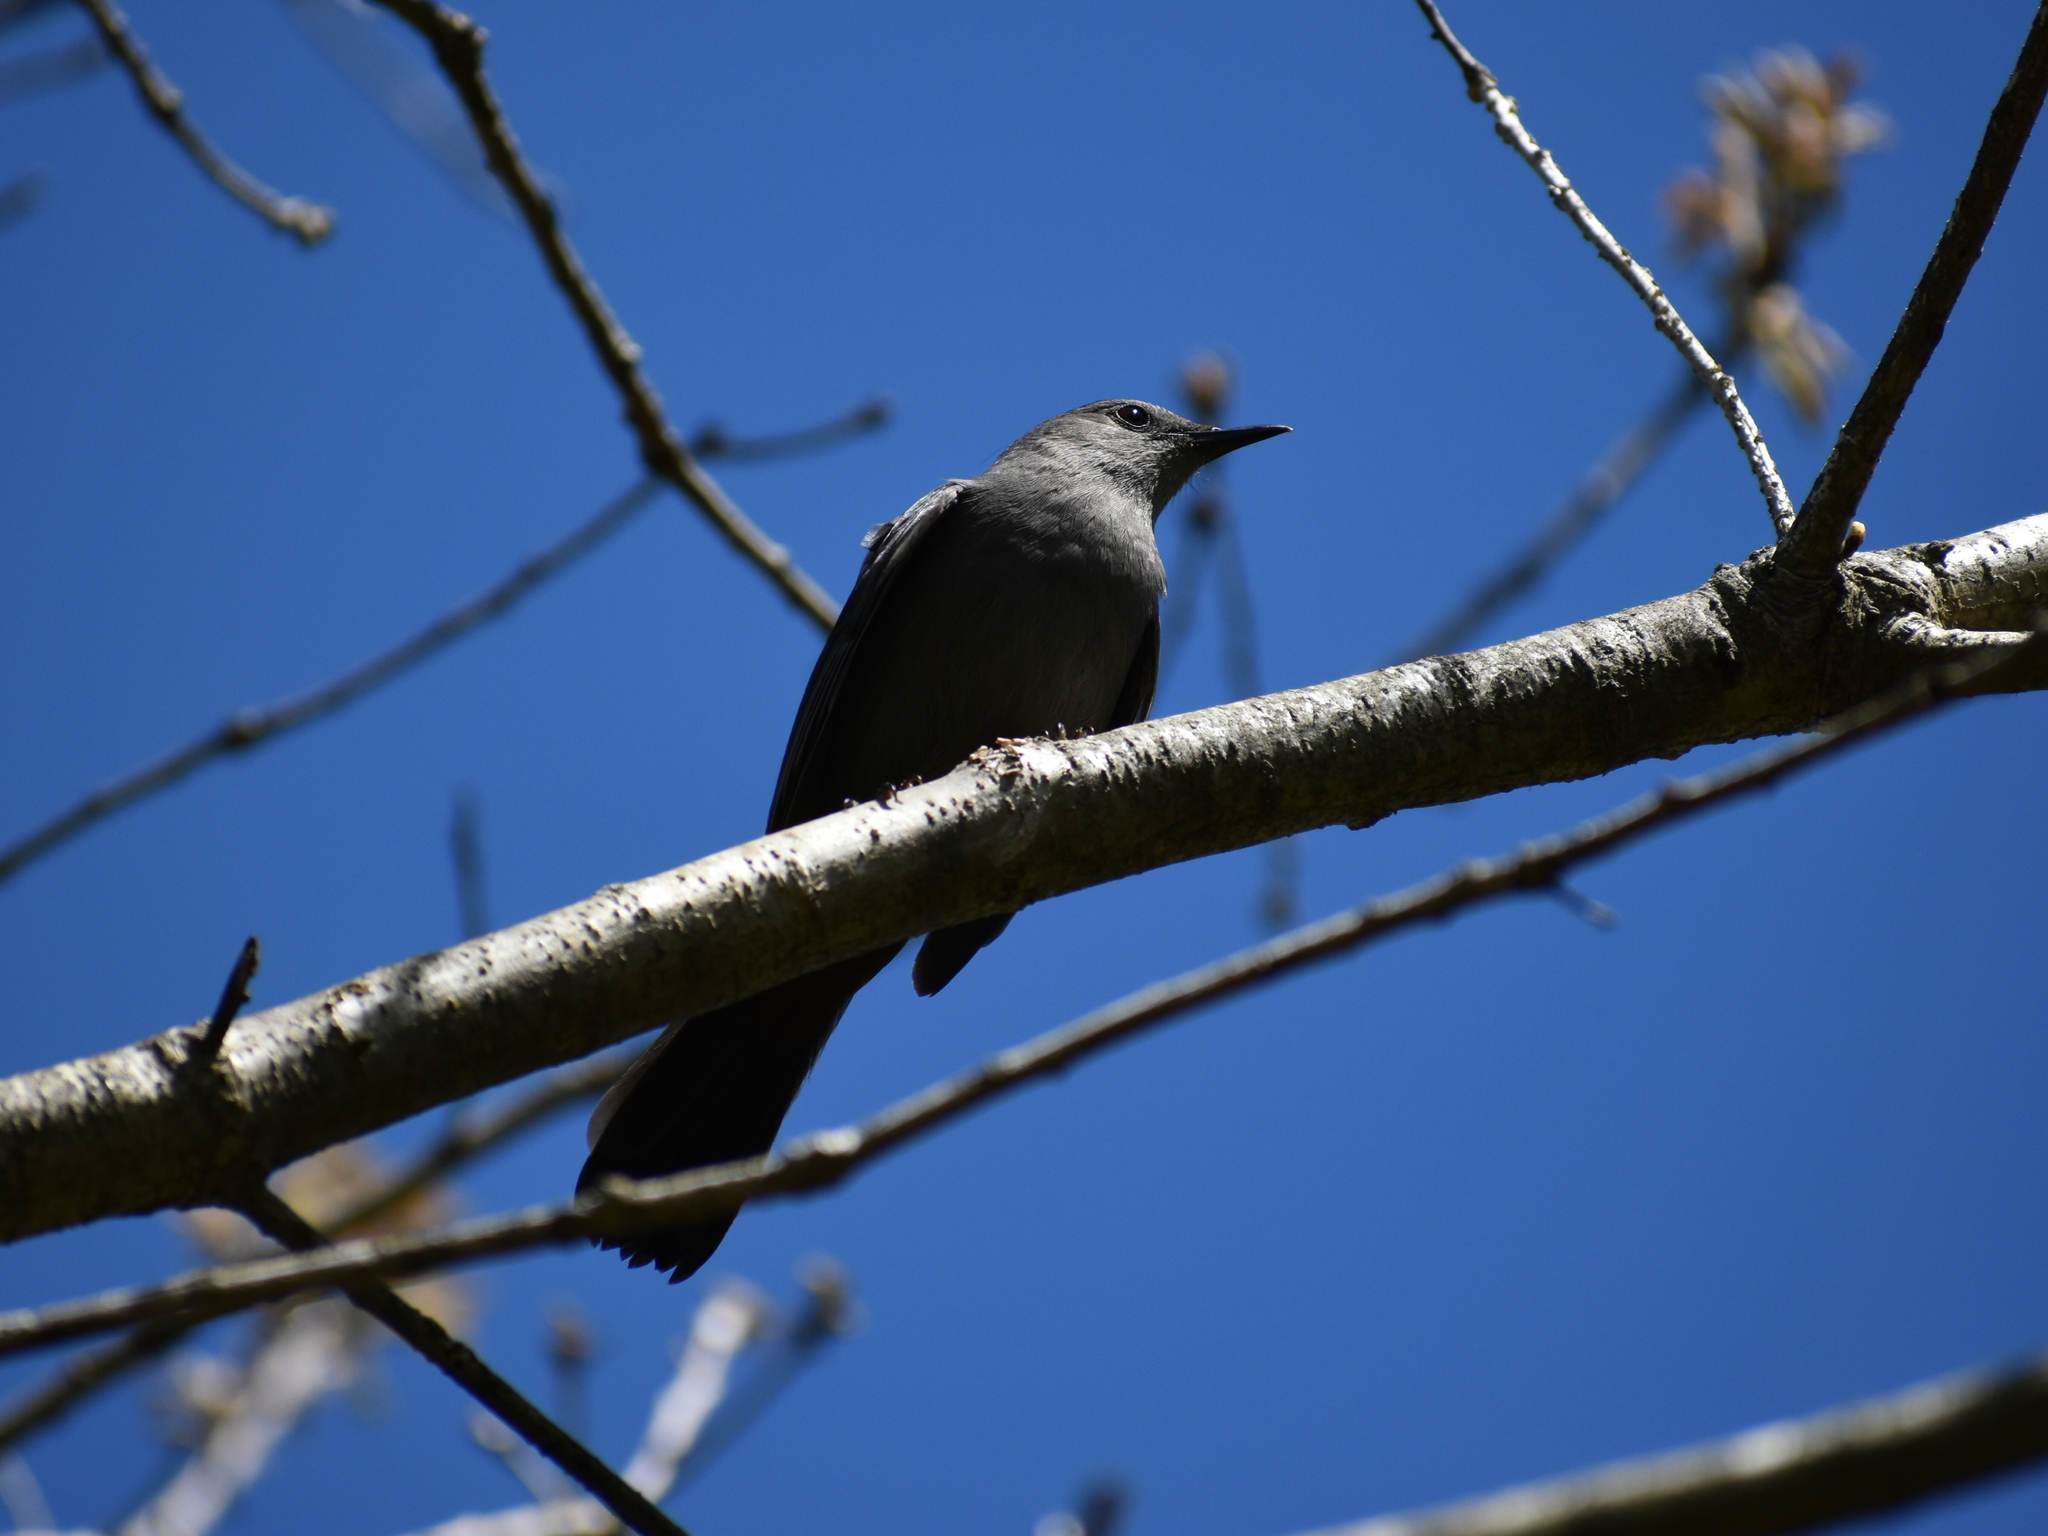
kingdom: Animalia
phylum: Chordata
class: Aves
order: Passeriformes
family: Mimidae
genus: Dumetella
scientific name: Dumetella carolinensis
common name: Gray catbird
